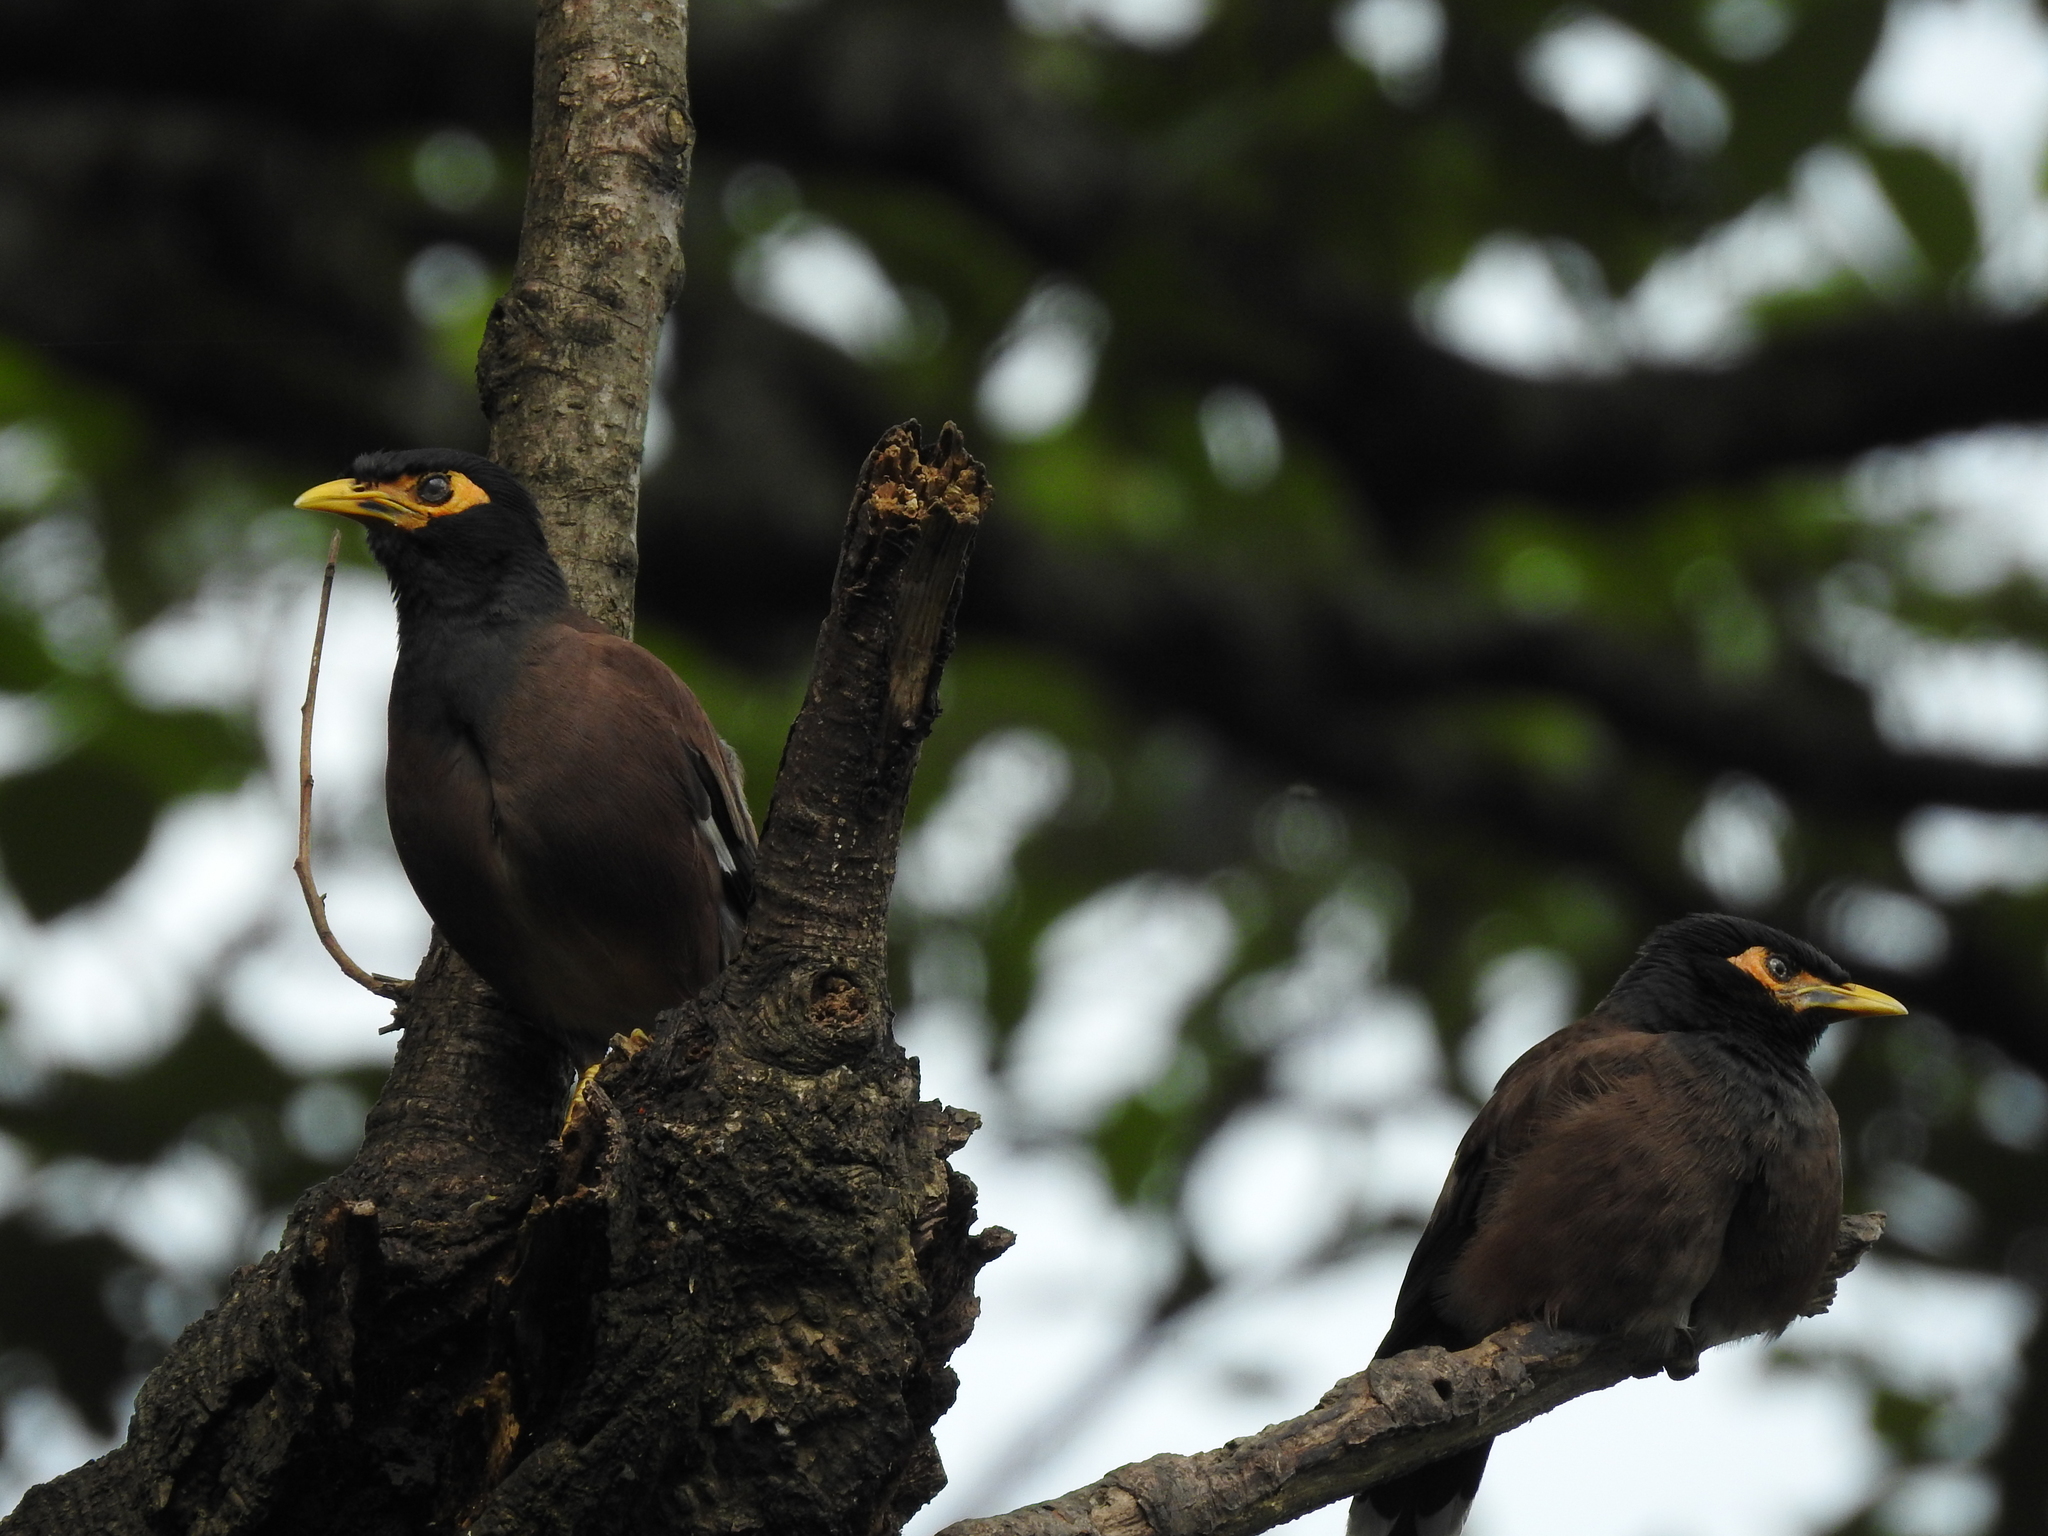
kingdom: Animalia
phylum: Chordata
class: Aves
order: Passeriformes
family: Sturnidae
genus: Acridotheres
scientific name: Acridotheres tristis
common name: Common myna
